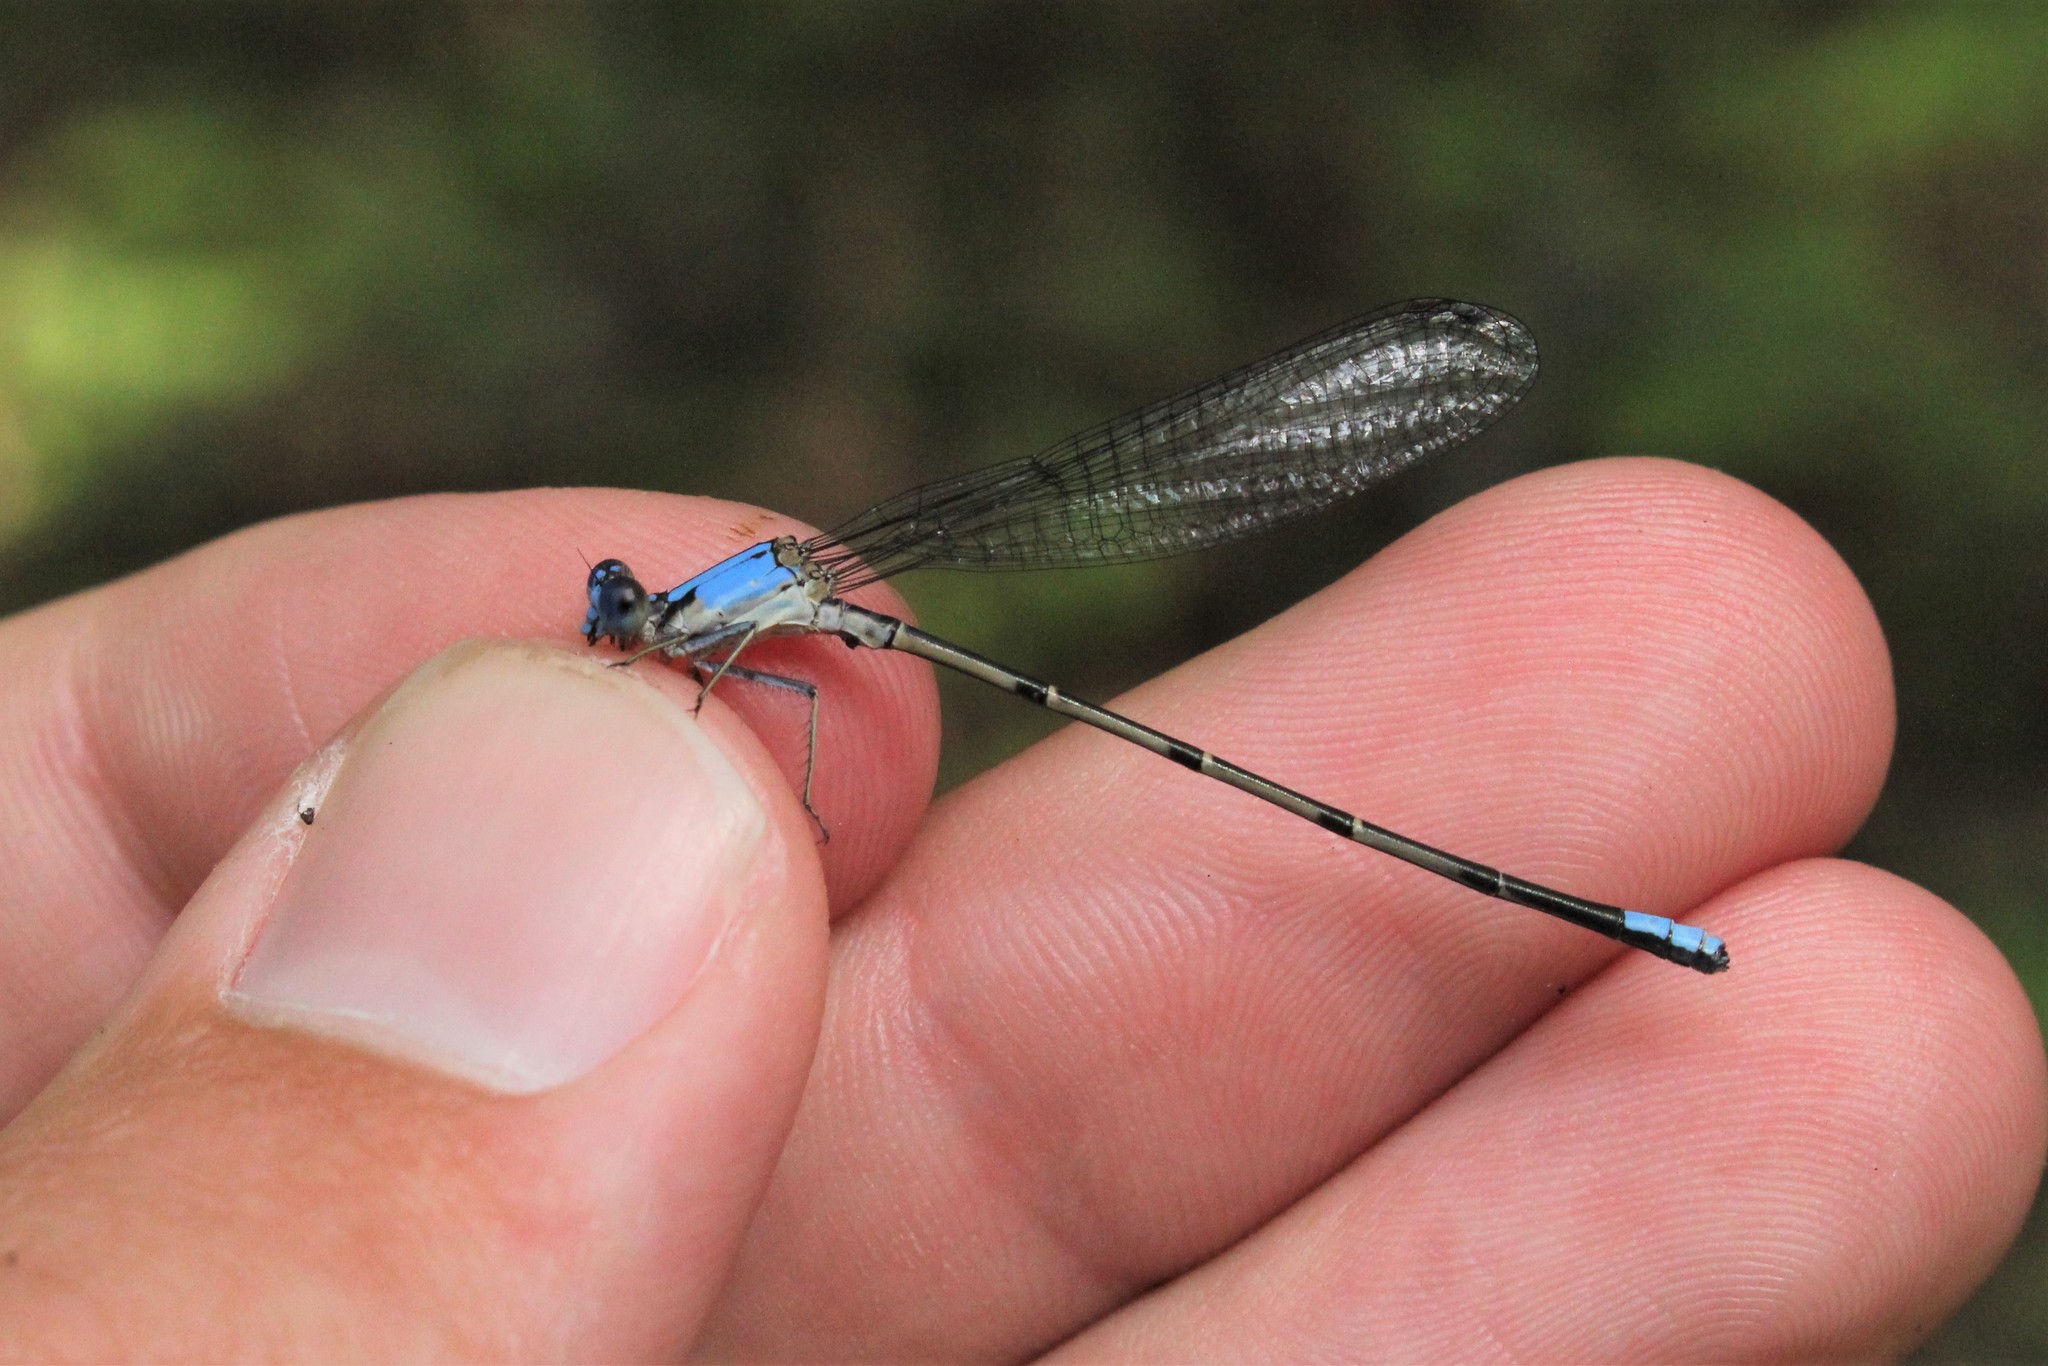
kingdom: Animalia
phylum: Arthropoda
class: Insecta
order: Odonata
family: Coenagrionidae
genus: Argia
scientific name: Argia apicalis
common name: Blue-fronted dancer
